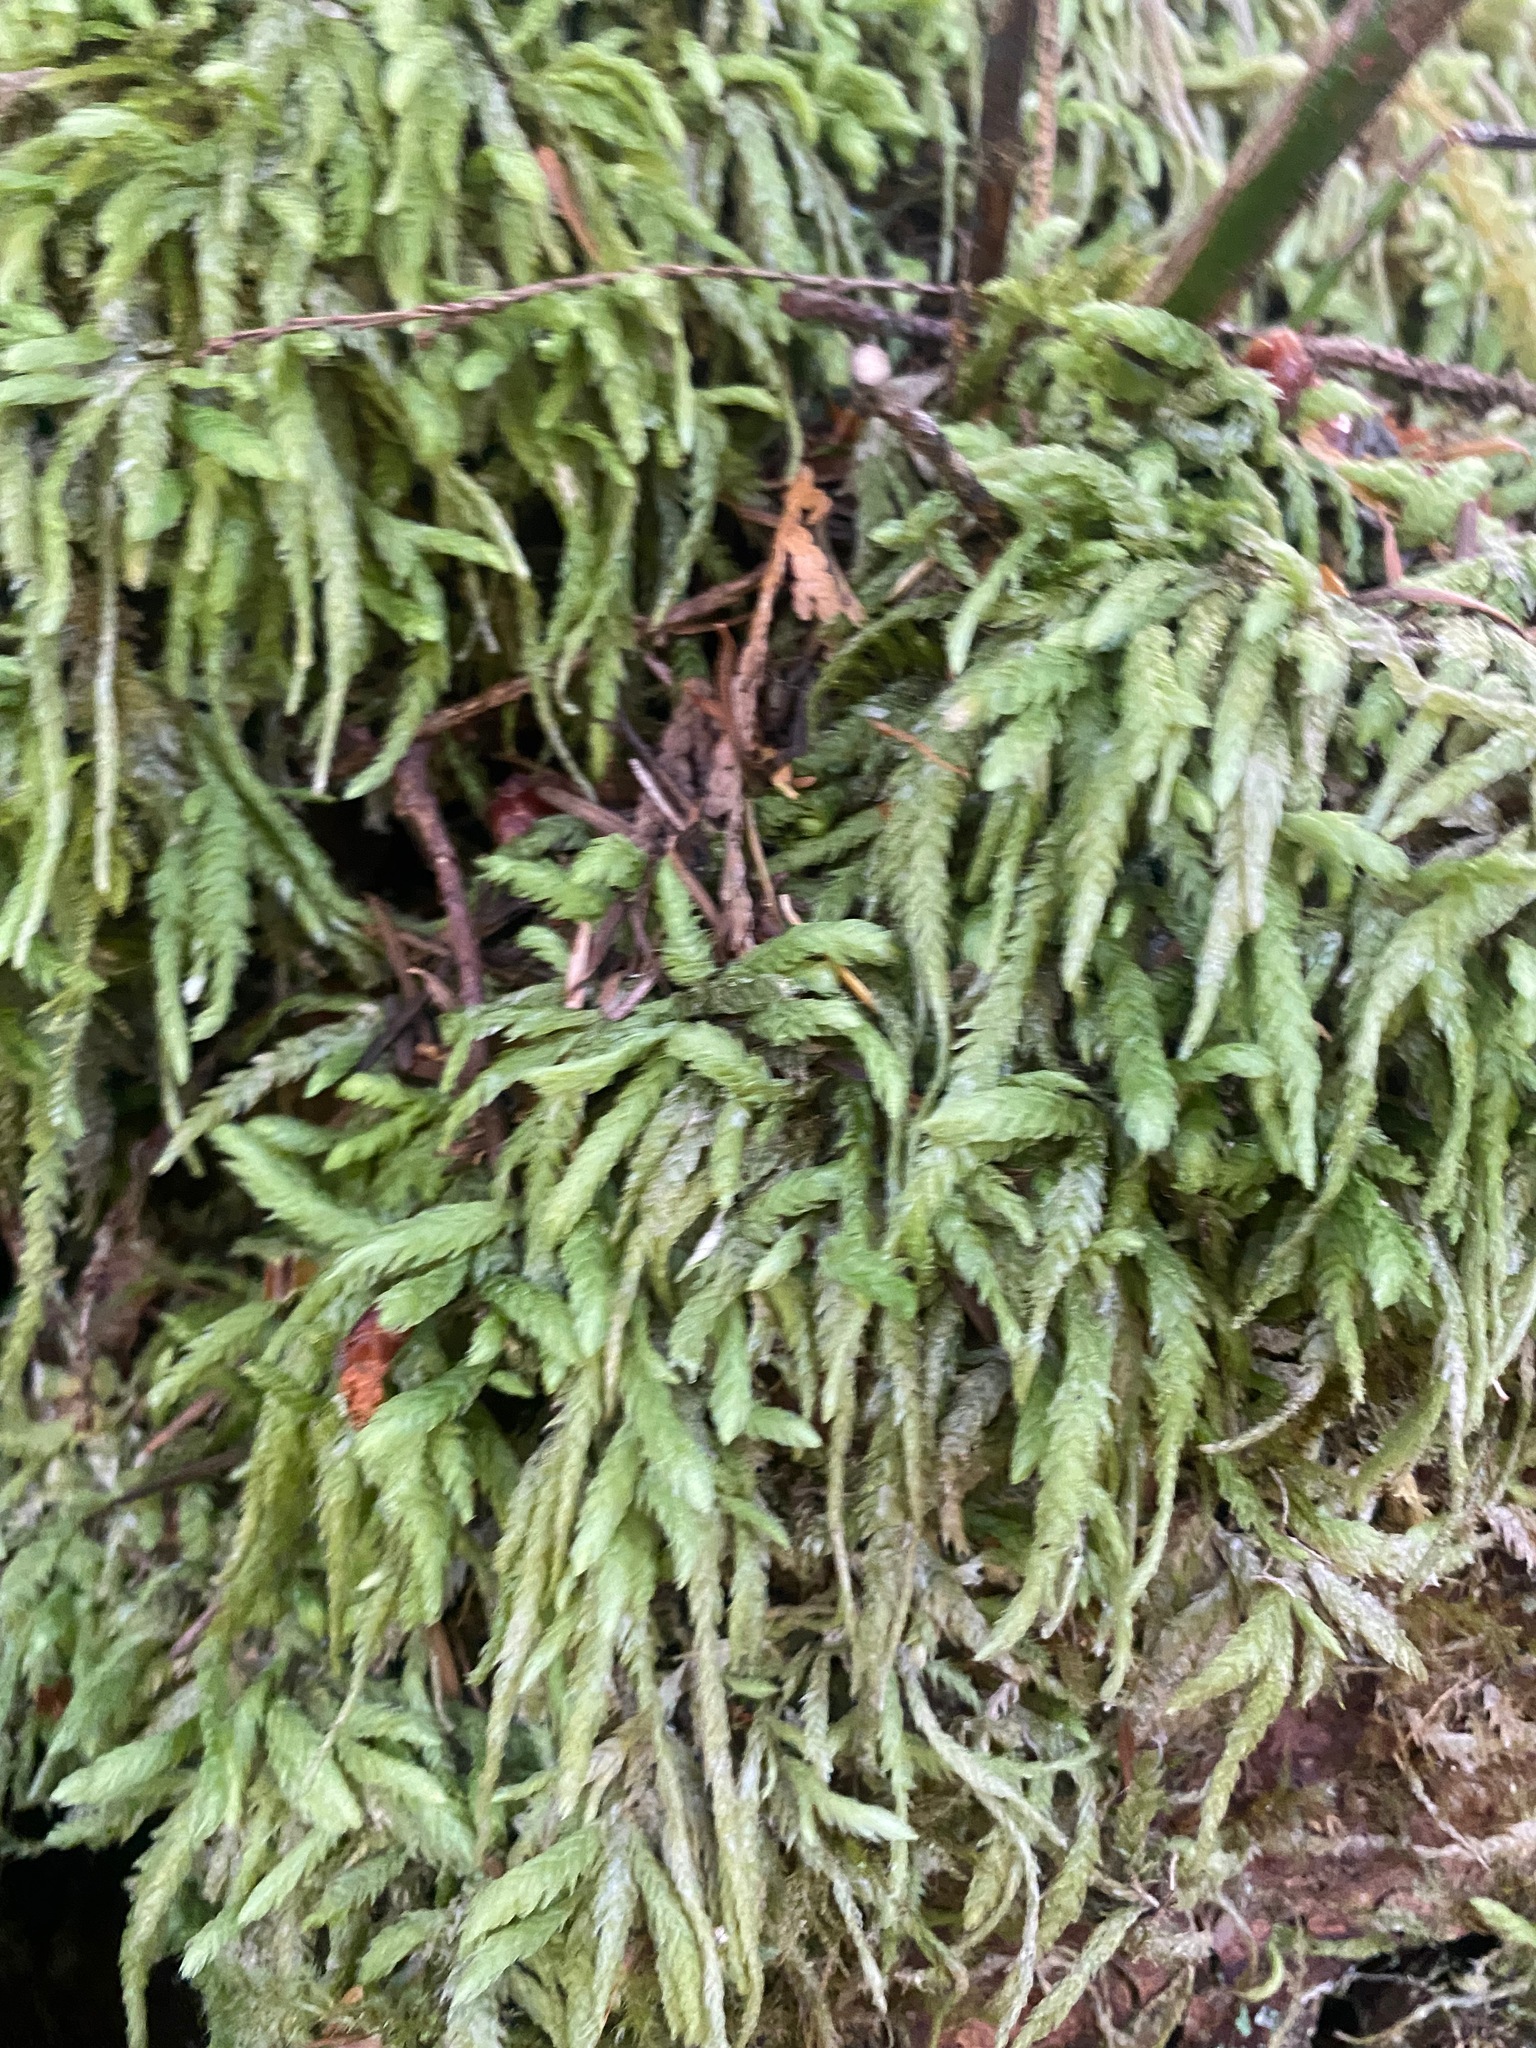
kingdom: Plantae
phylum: Bryophyta
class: Bryopsida
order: Hypnales
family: Plagiotheciaceae
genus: Plagiothecium
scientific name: Plagiothecium undulatum
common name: Waved silk-moss
